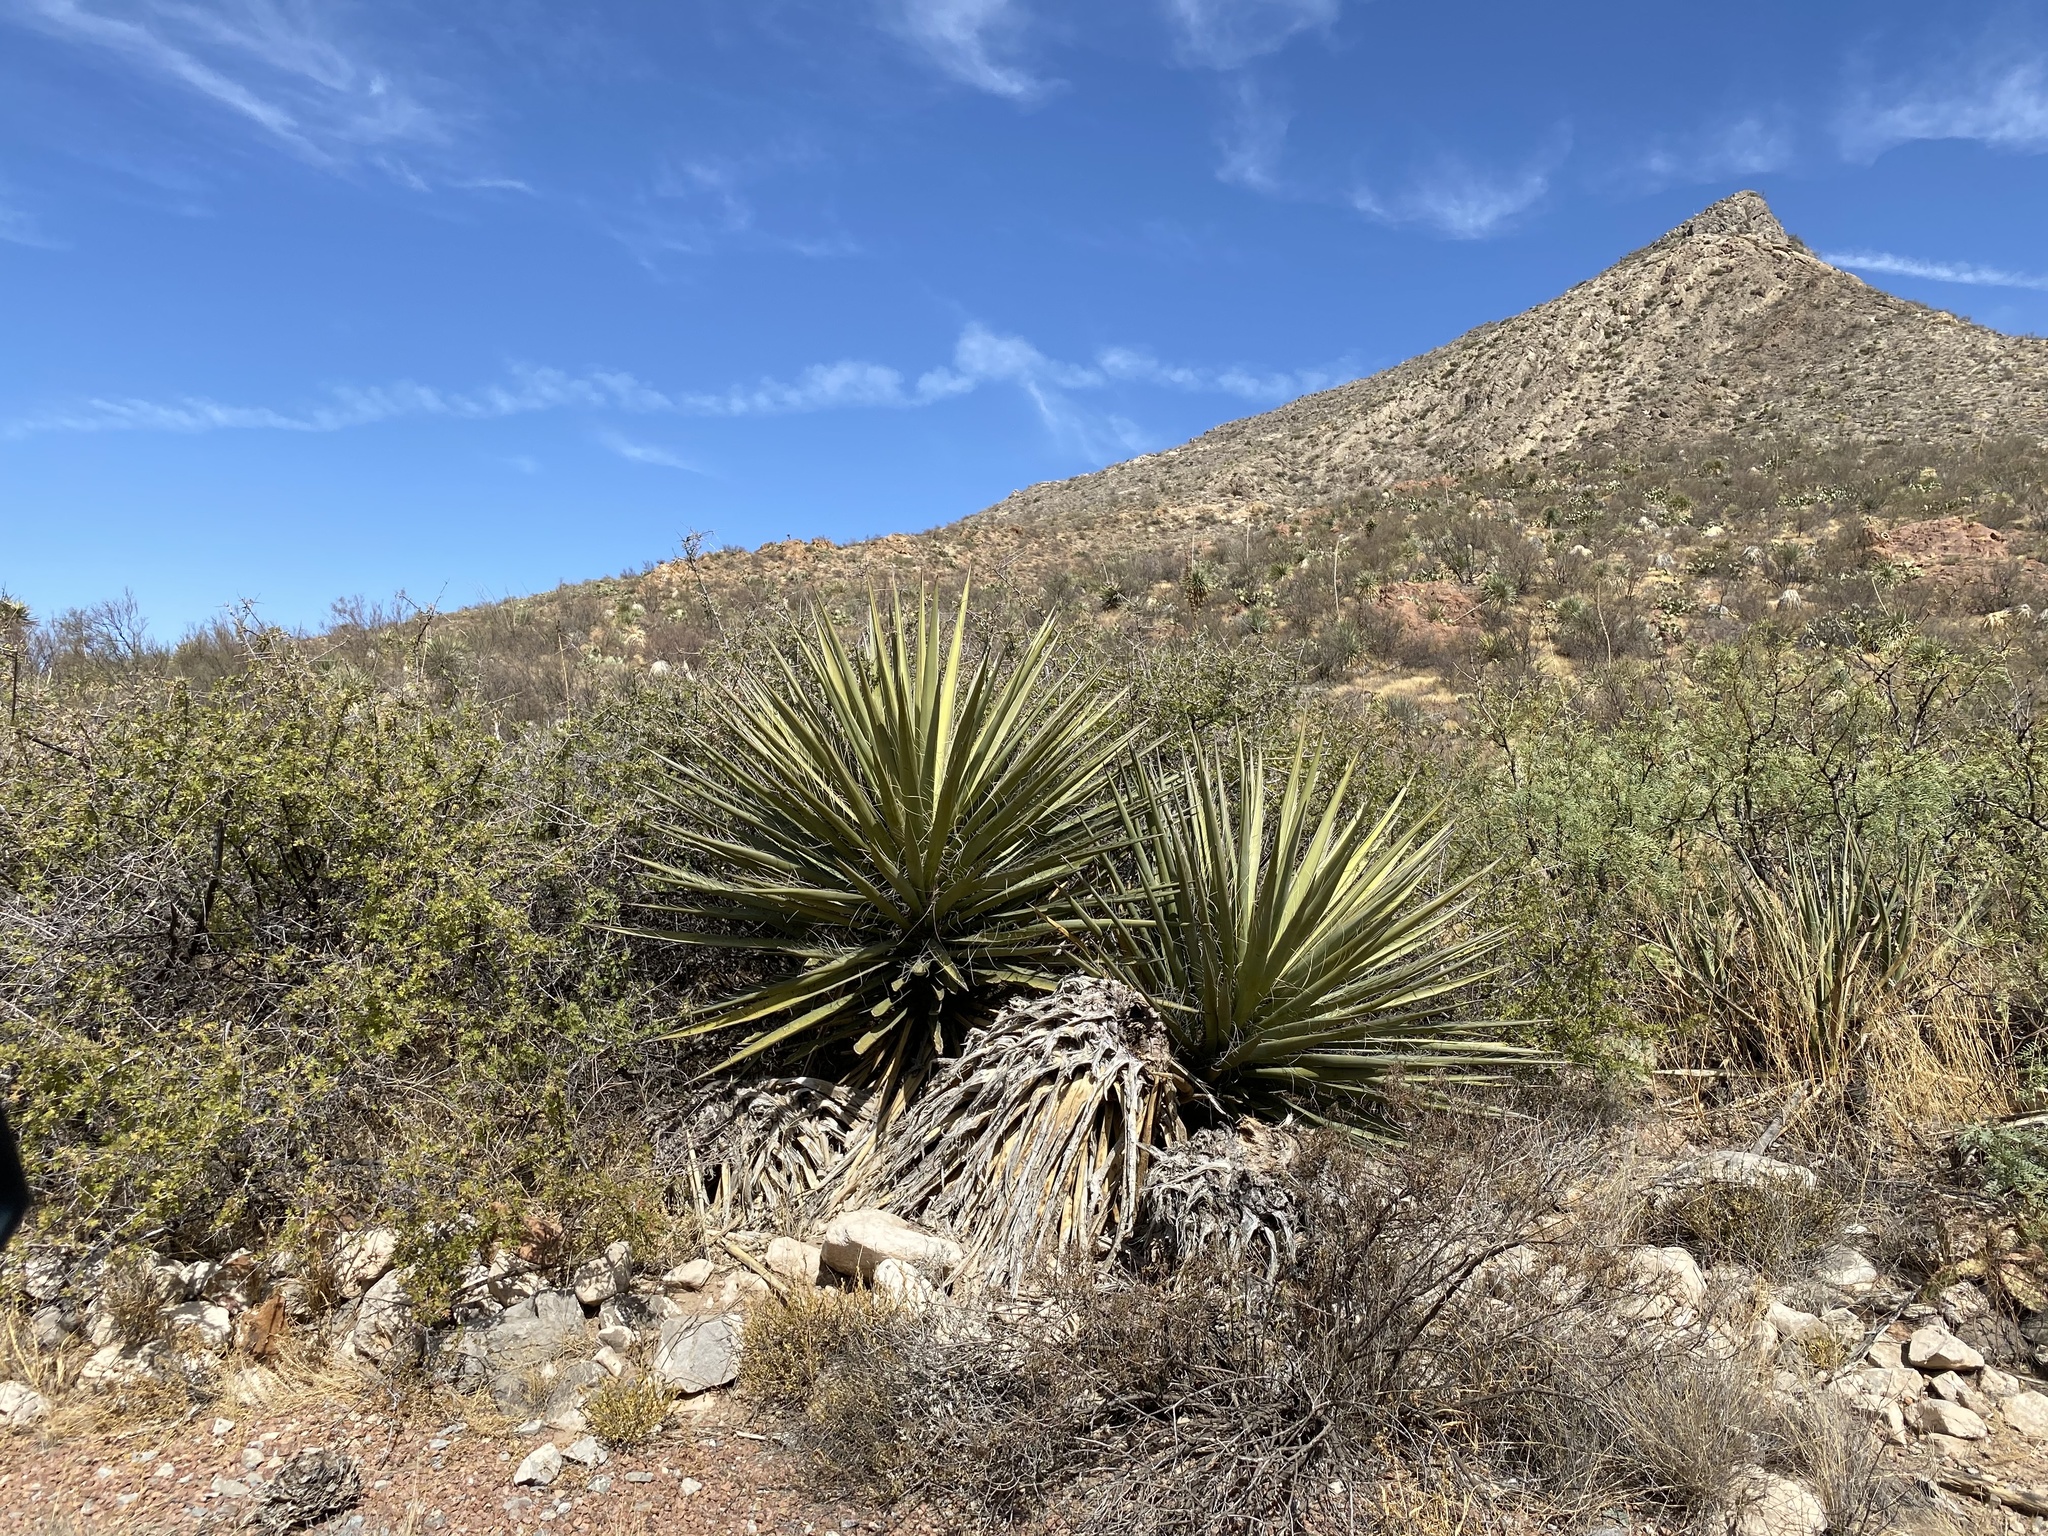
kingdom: Plantae
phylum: Tracheophyta
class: Liliopsida
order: Asparagales
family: Asparagaceae
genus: Yucca
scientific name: Yucca treculiana
